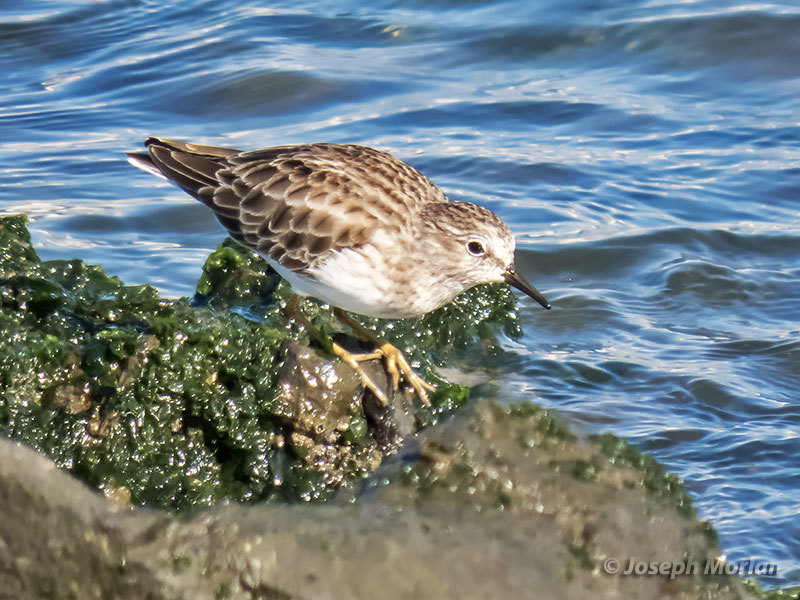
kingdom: Animalia
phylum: Chordata
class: Aves
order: Charadriiformes
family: Scolopacidae
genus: Calidris
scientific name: Calidris minutilla
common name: Least sandpiper
